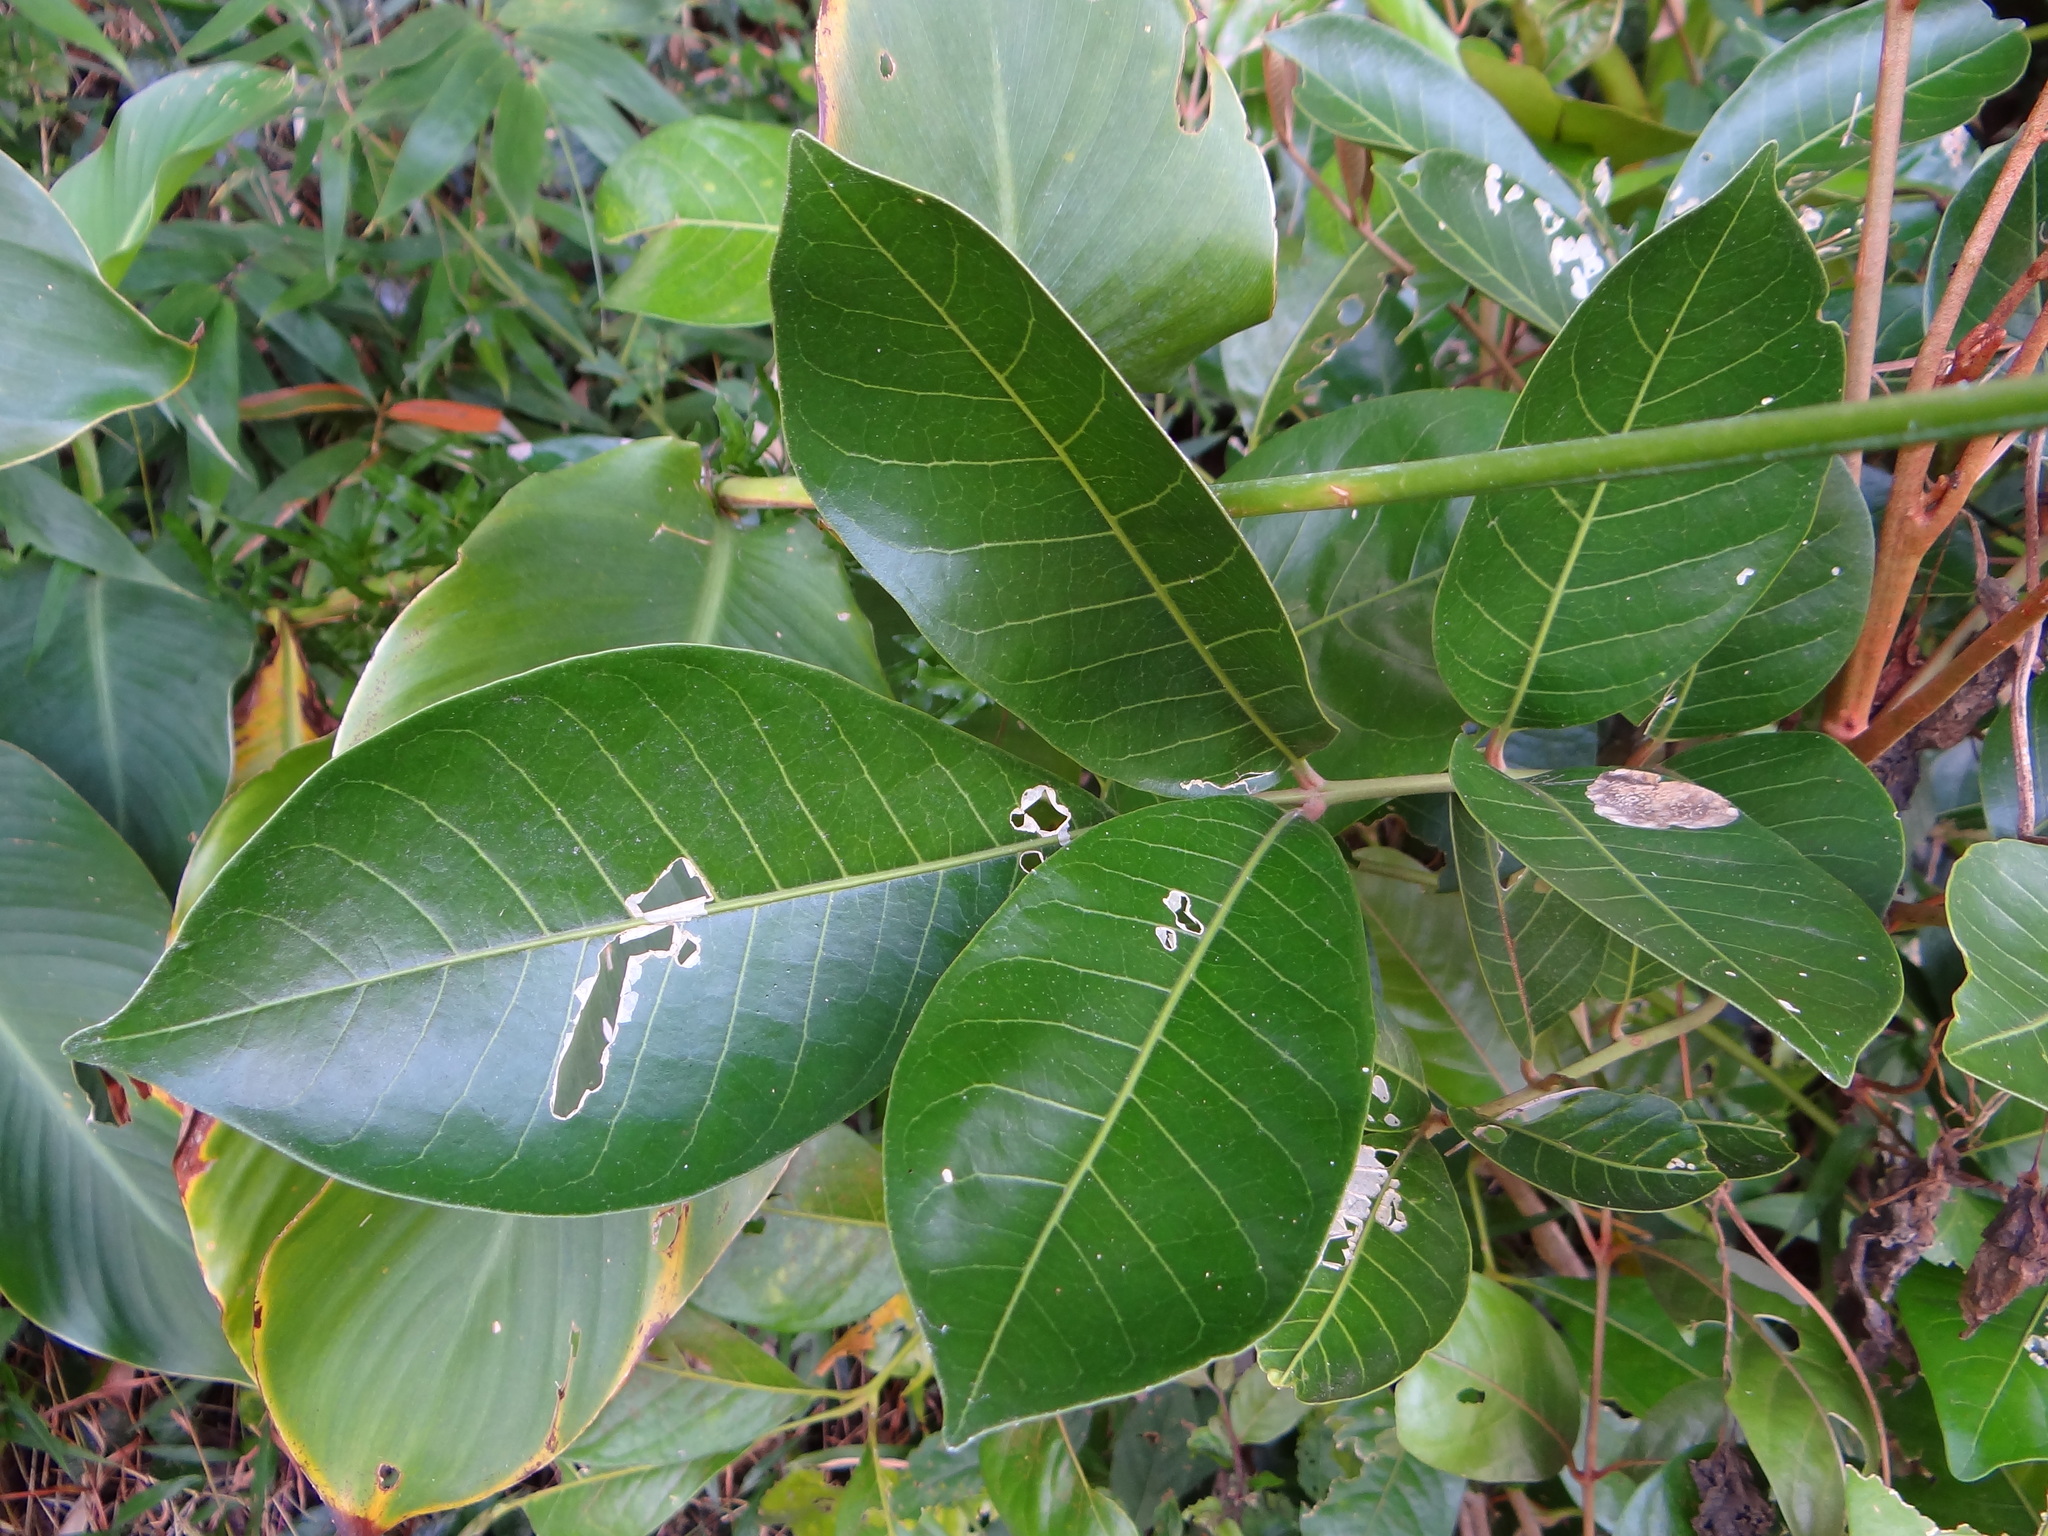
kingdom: Plantae
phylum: Tracheophyta
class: Magnoliopsida
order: Sapindales
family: Meliaceae
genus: Aglaia
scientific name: Aglaia rimosa
